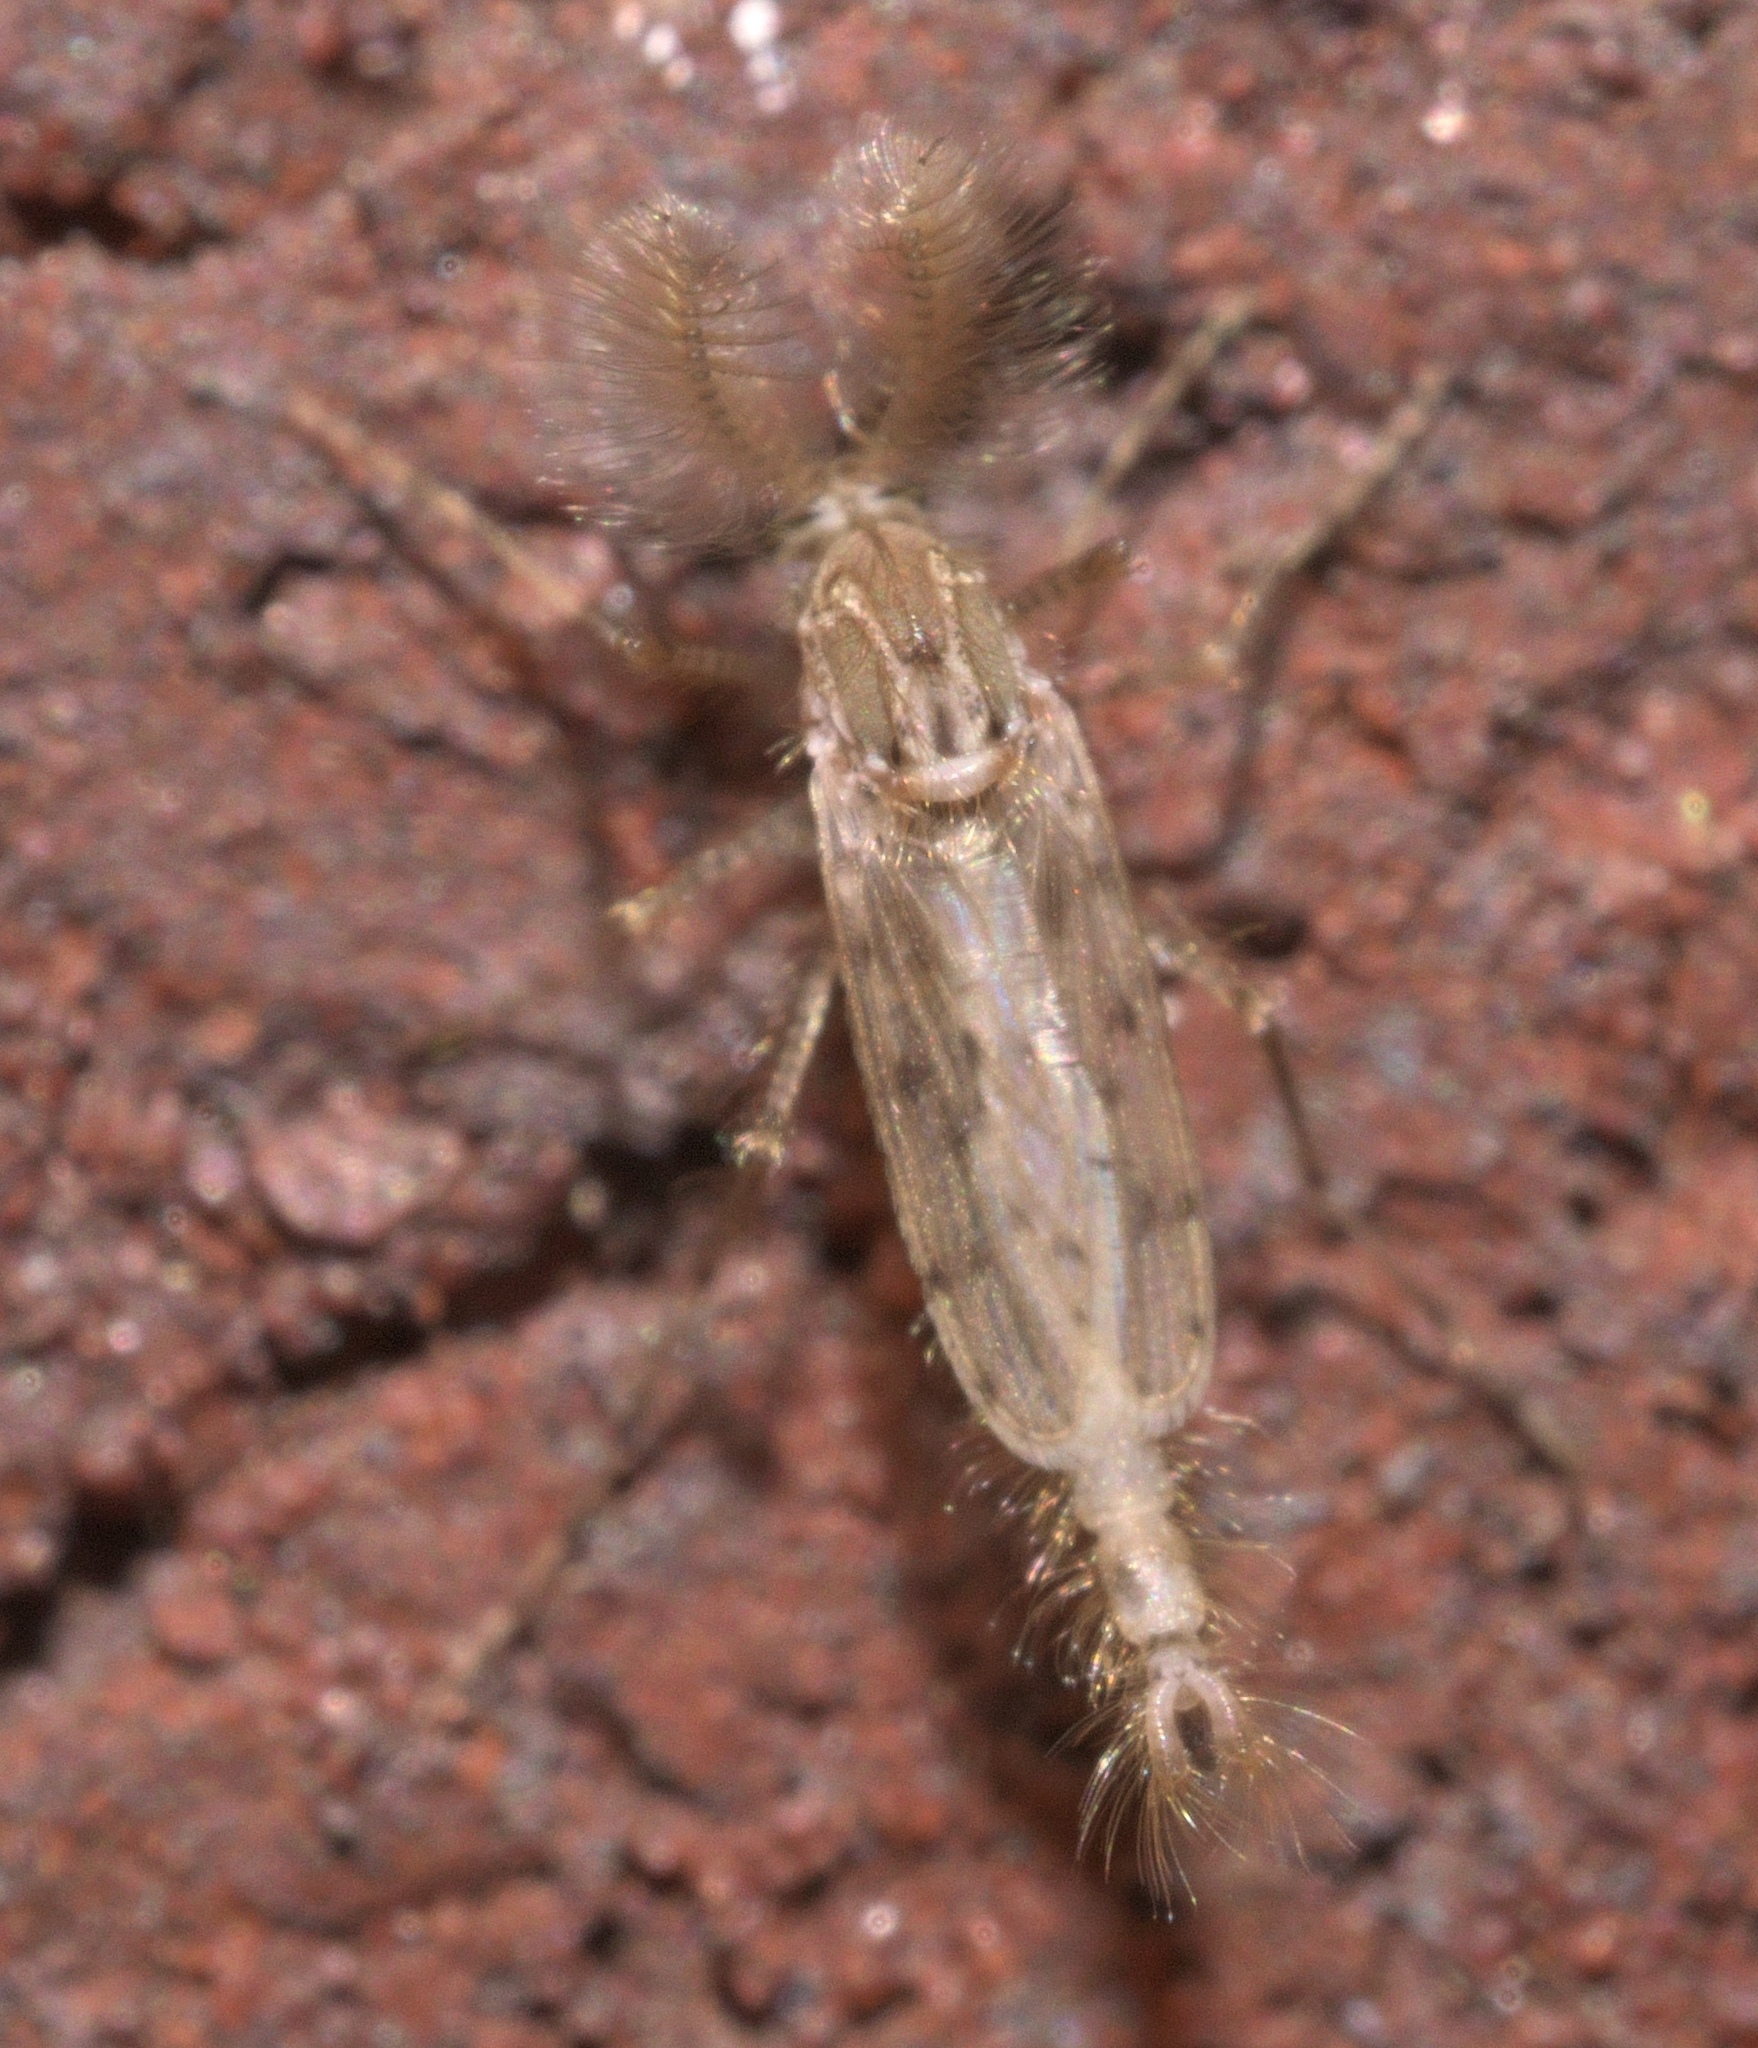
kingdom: Animalia
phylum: Arthropoda
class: Insecta
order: Diptera
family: Chaoboridae
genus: Chaoborus
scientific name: Chaoborus punctipennis
